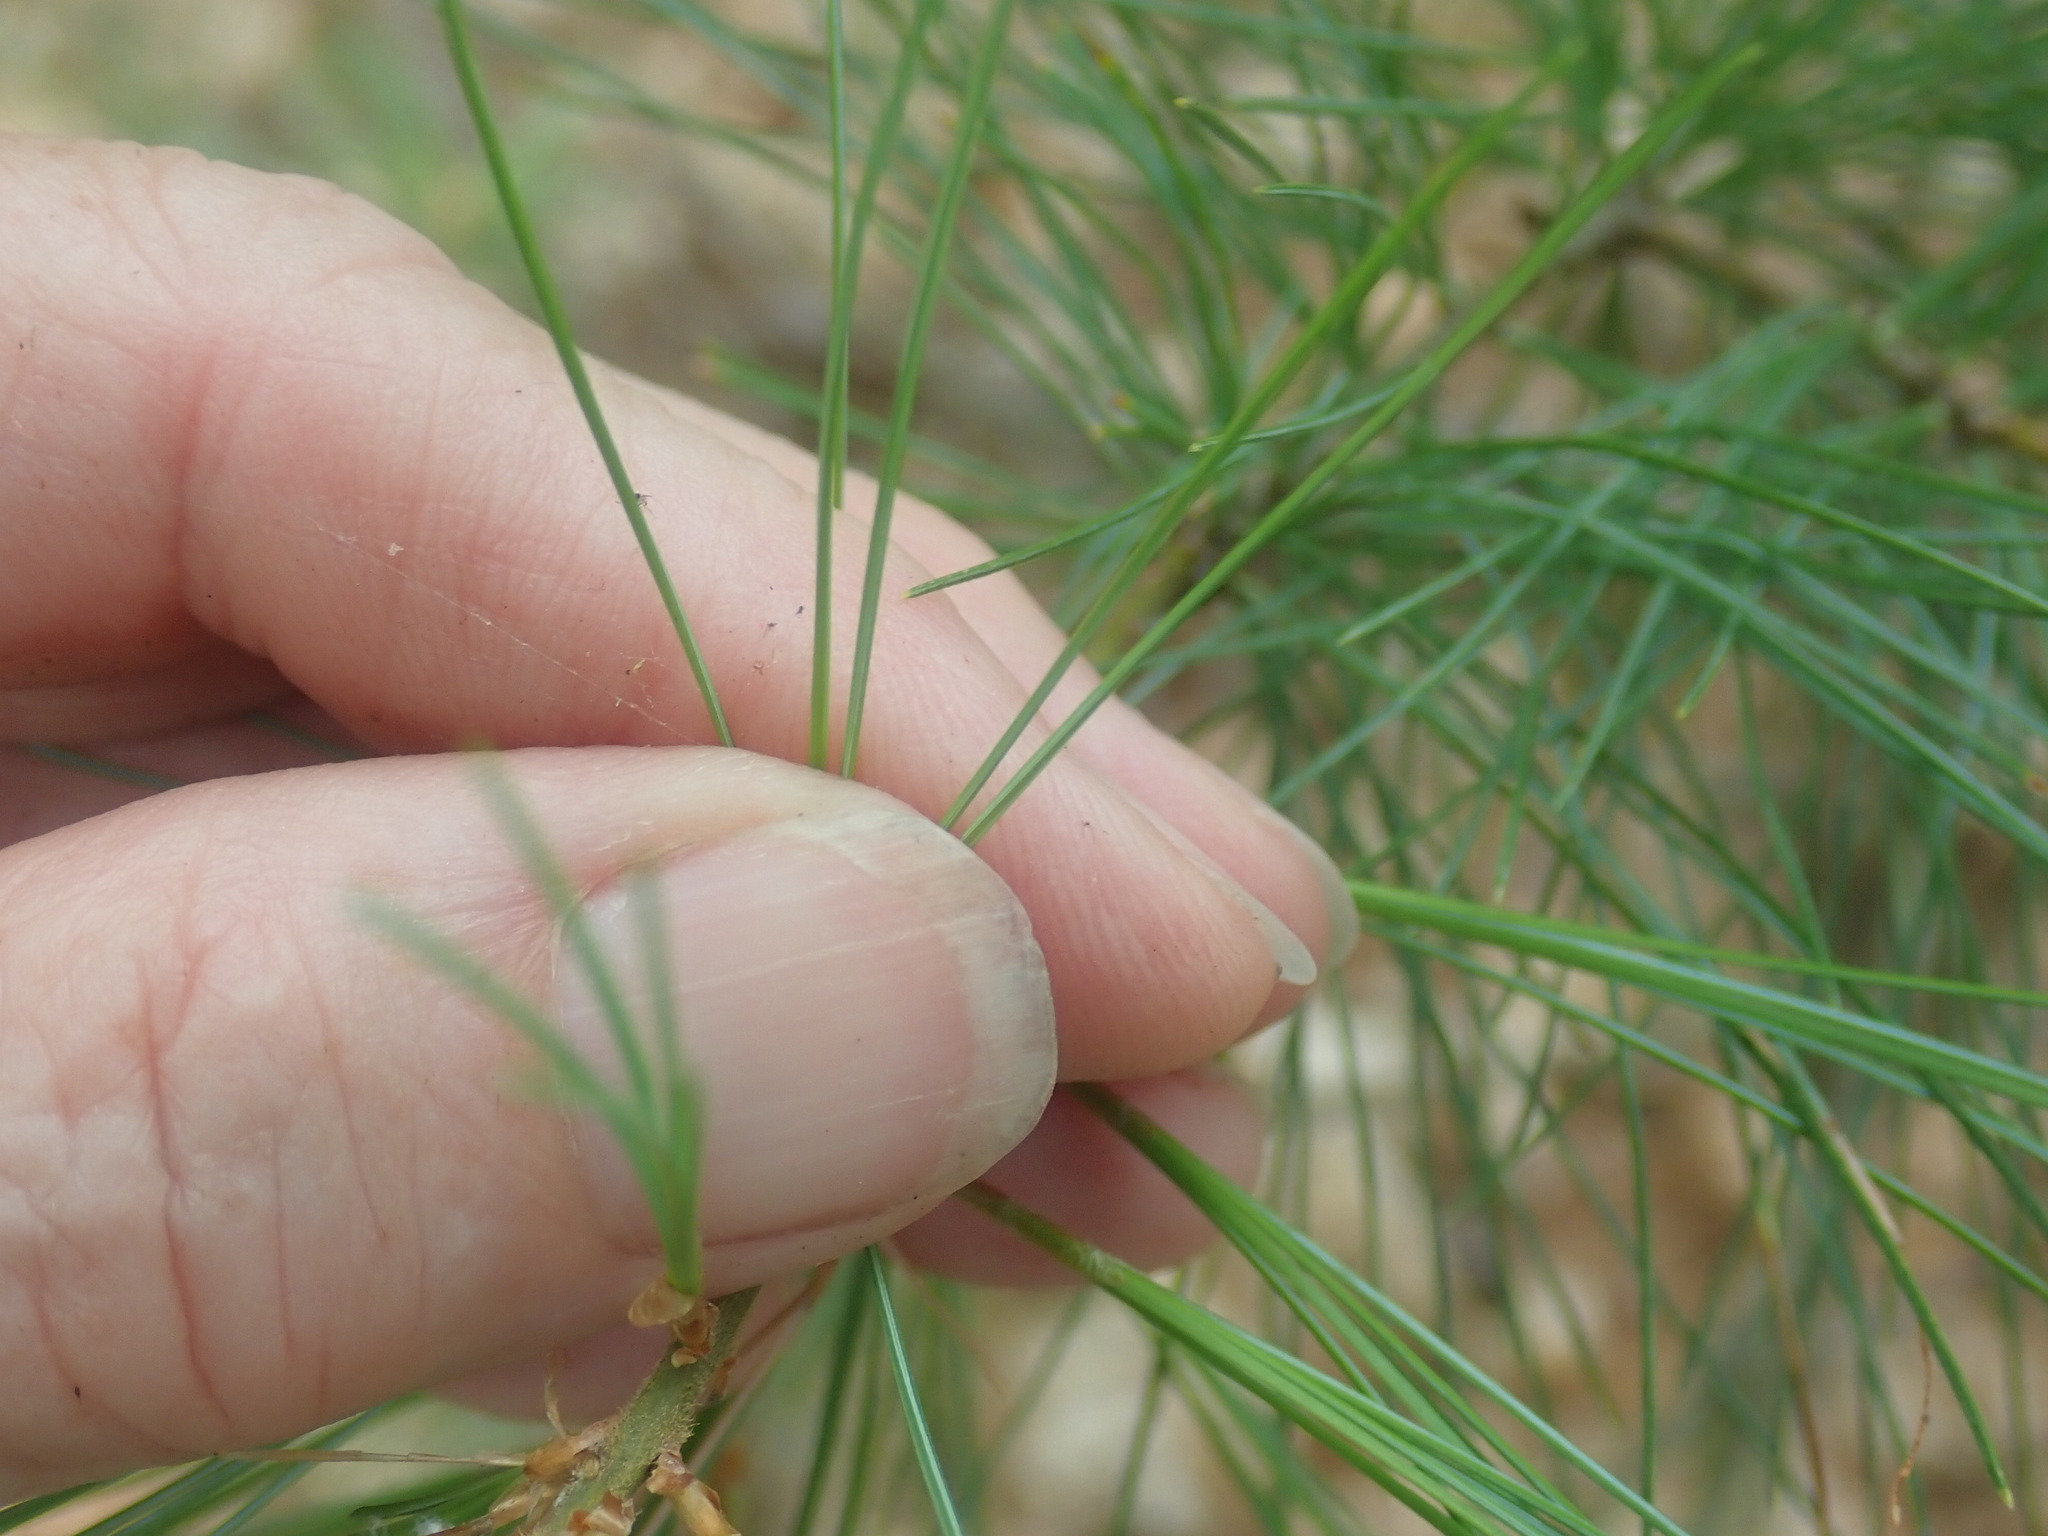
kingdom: Plantae
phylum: Tracheophyta
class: Pinopsida
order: Pinales
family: Pinaceae
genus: Pinus
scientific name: Pinus strobus
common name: Weymouth pine
